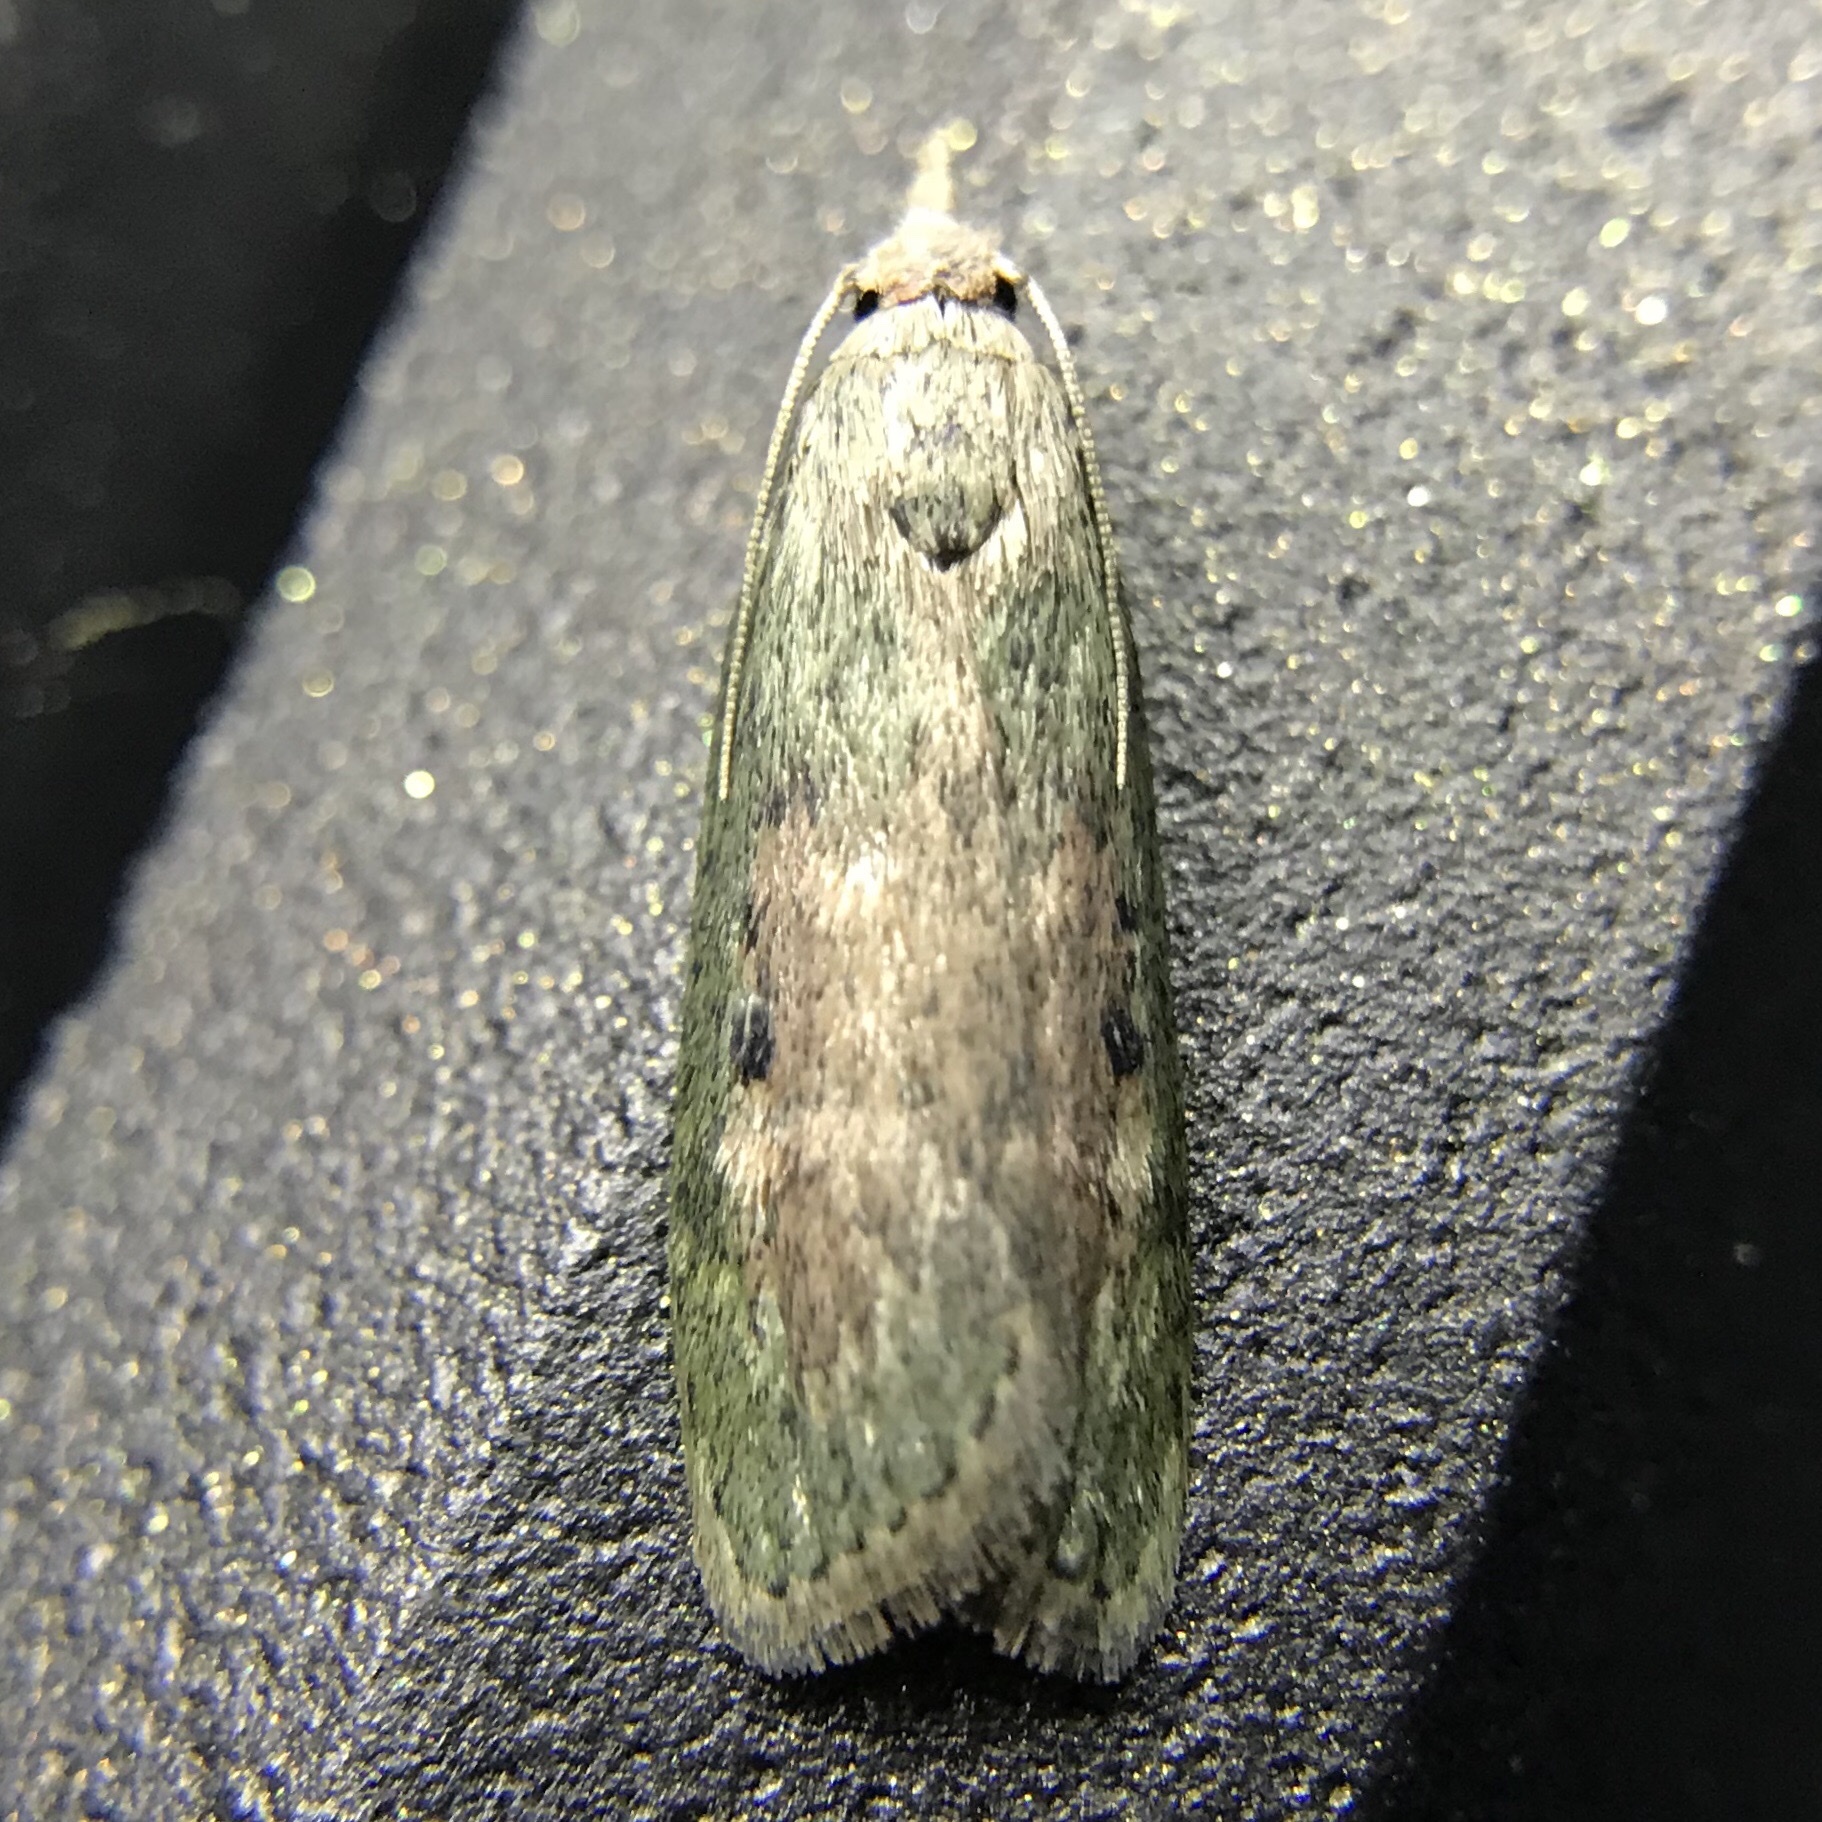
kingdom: Animalia
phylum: Arthropoda
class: Insecta
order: Lepidoptera
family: Pyralidae
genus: Aphomia
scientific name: Aphomia sociella
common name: Bee moth
